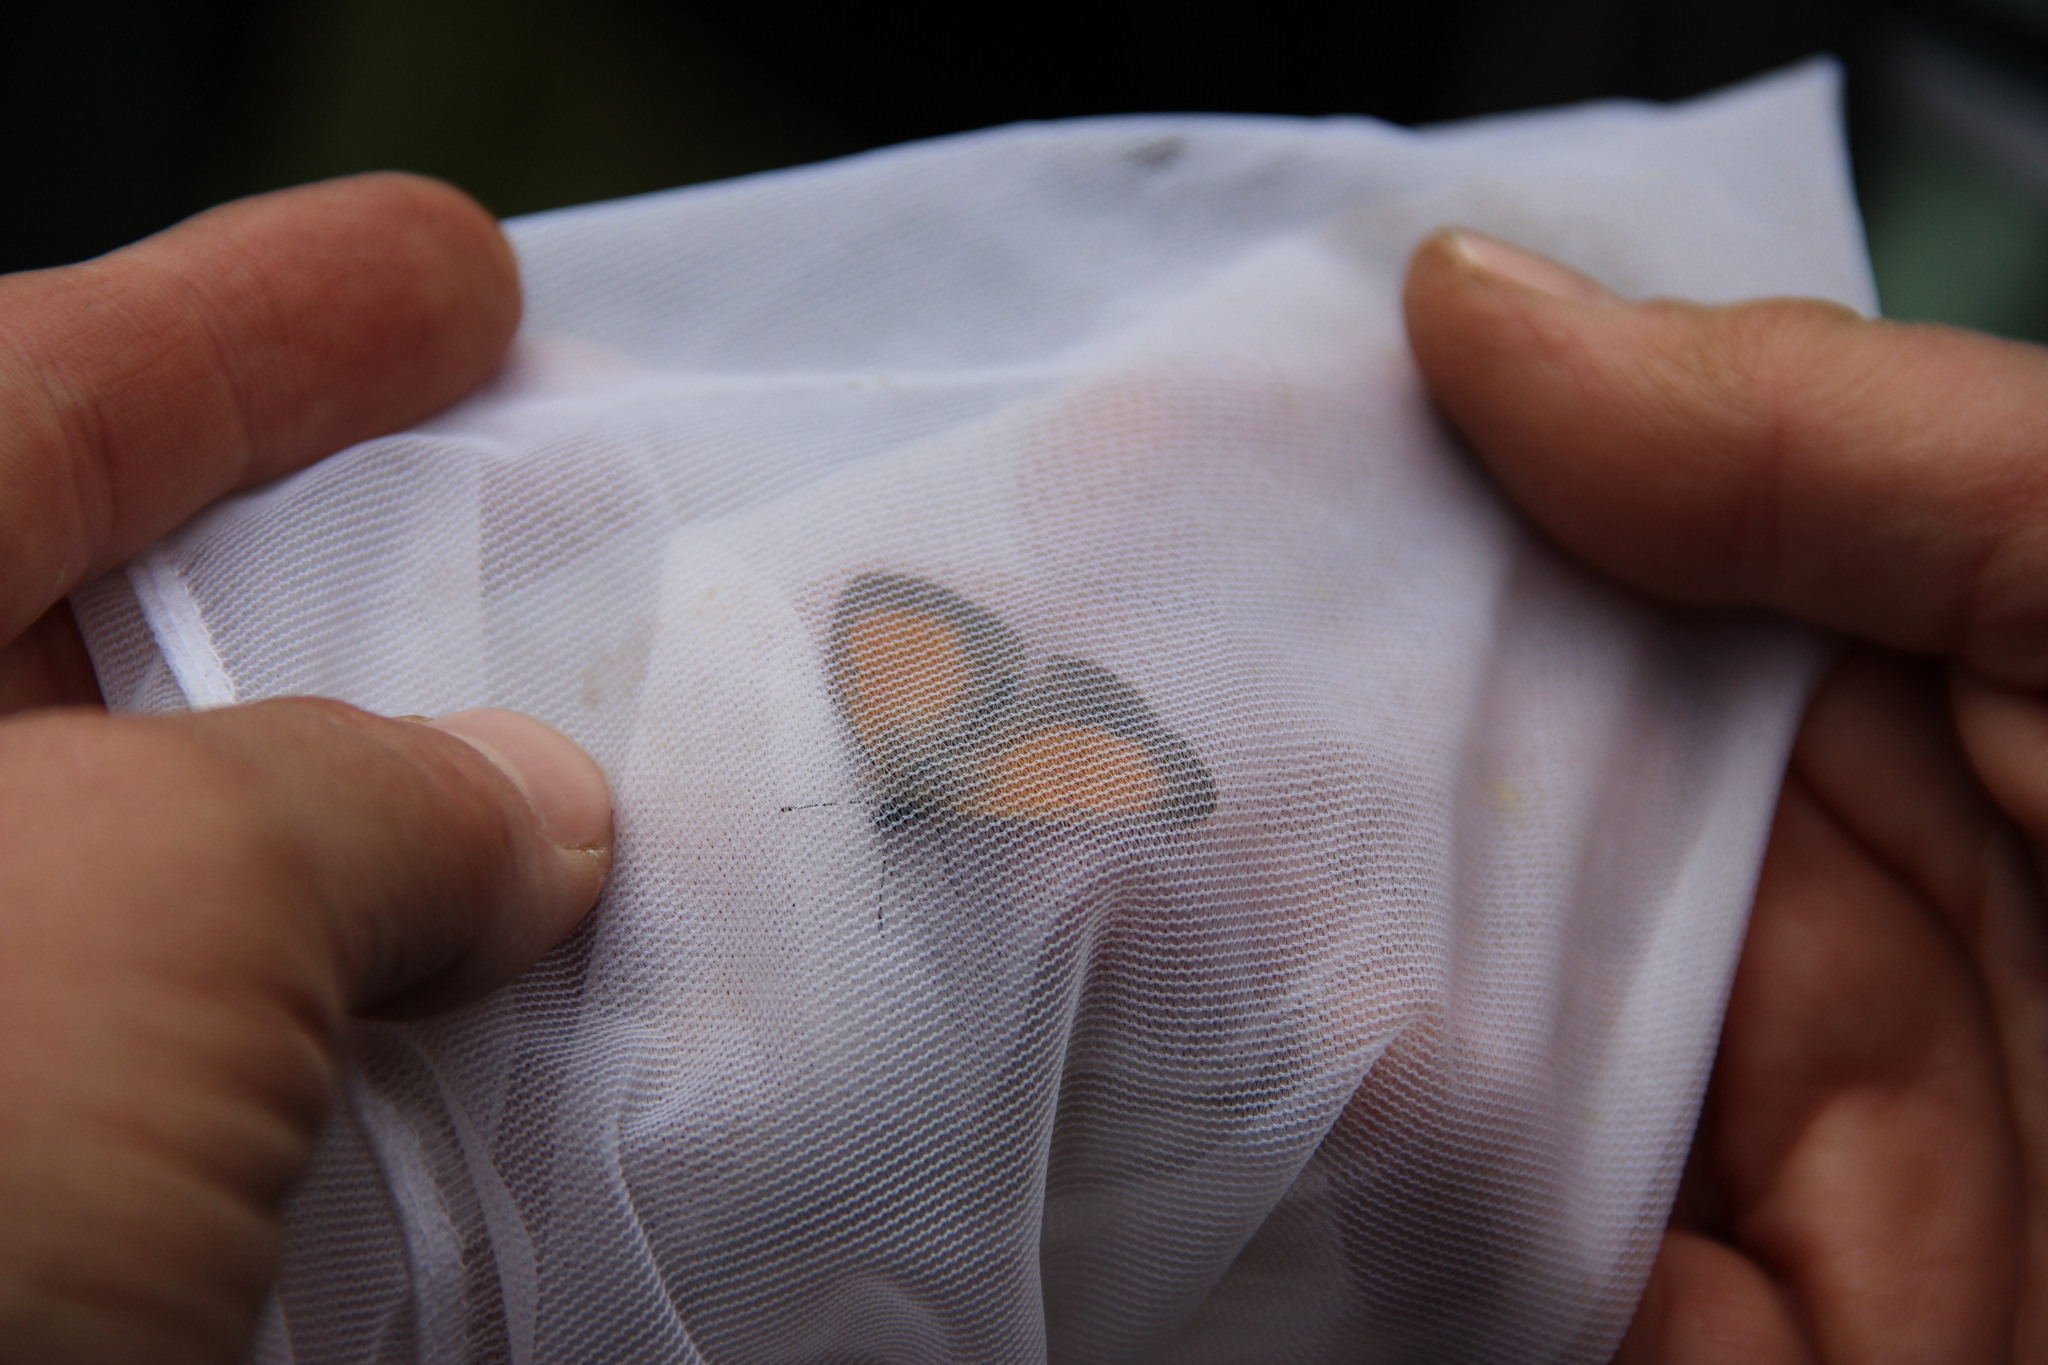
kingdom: Animalia
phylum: Arthropoda
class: Insecta
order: Lepidoptera
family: Nymphalidae
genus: Coenonympha
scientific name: Coenonympha arcania
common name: Pearly heath
